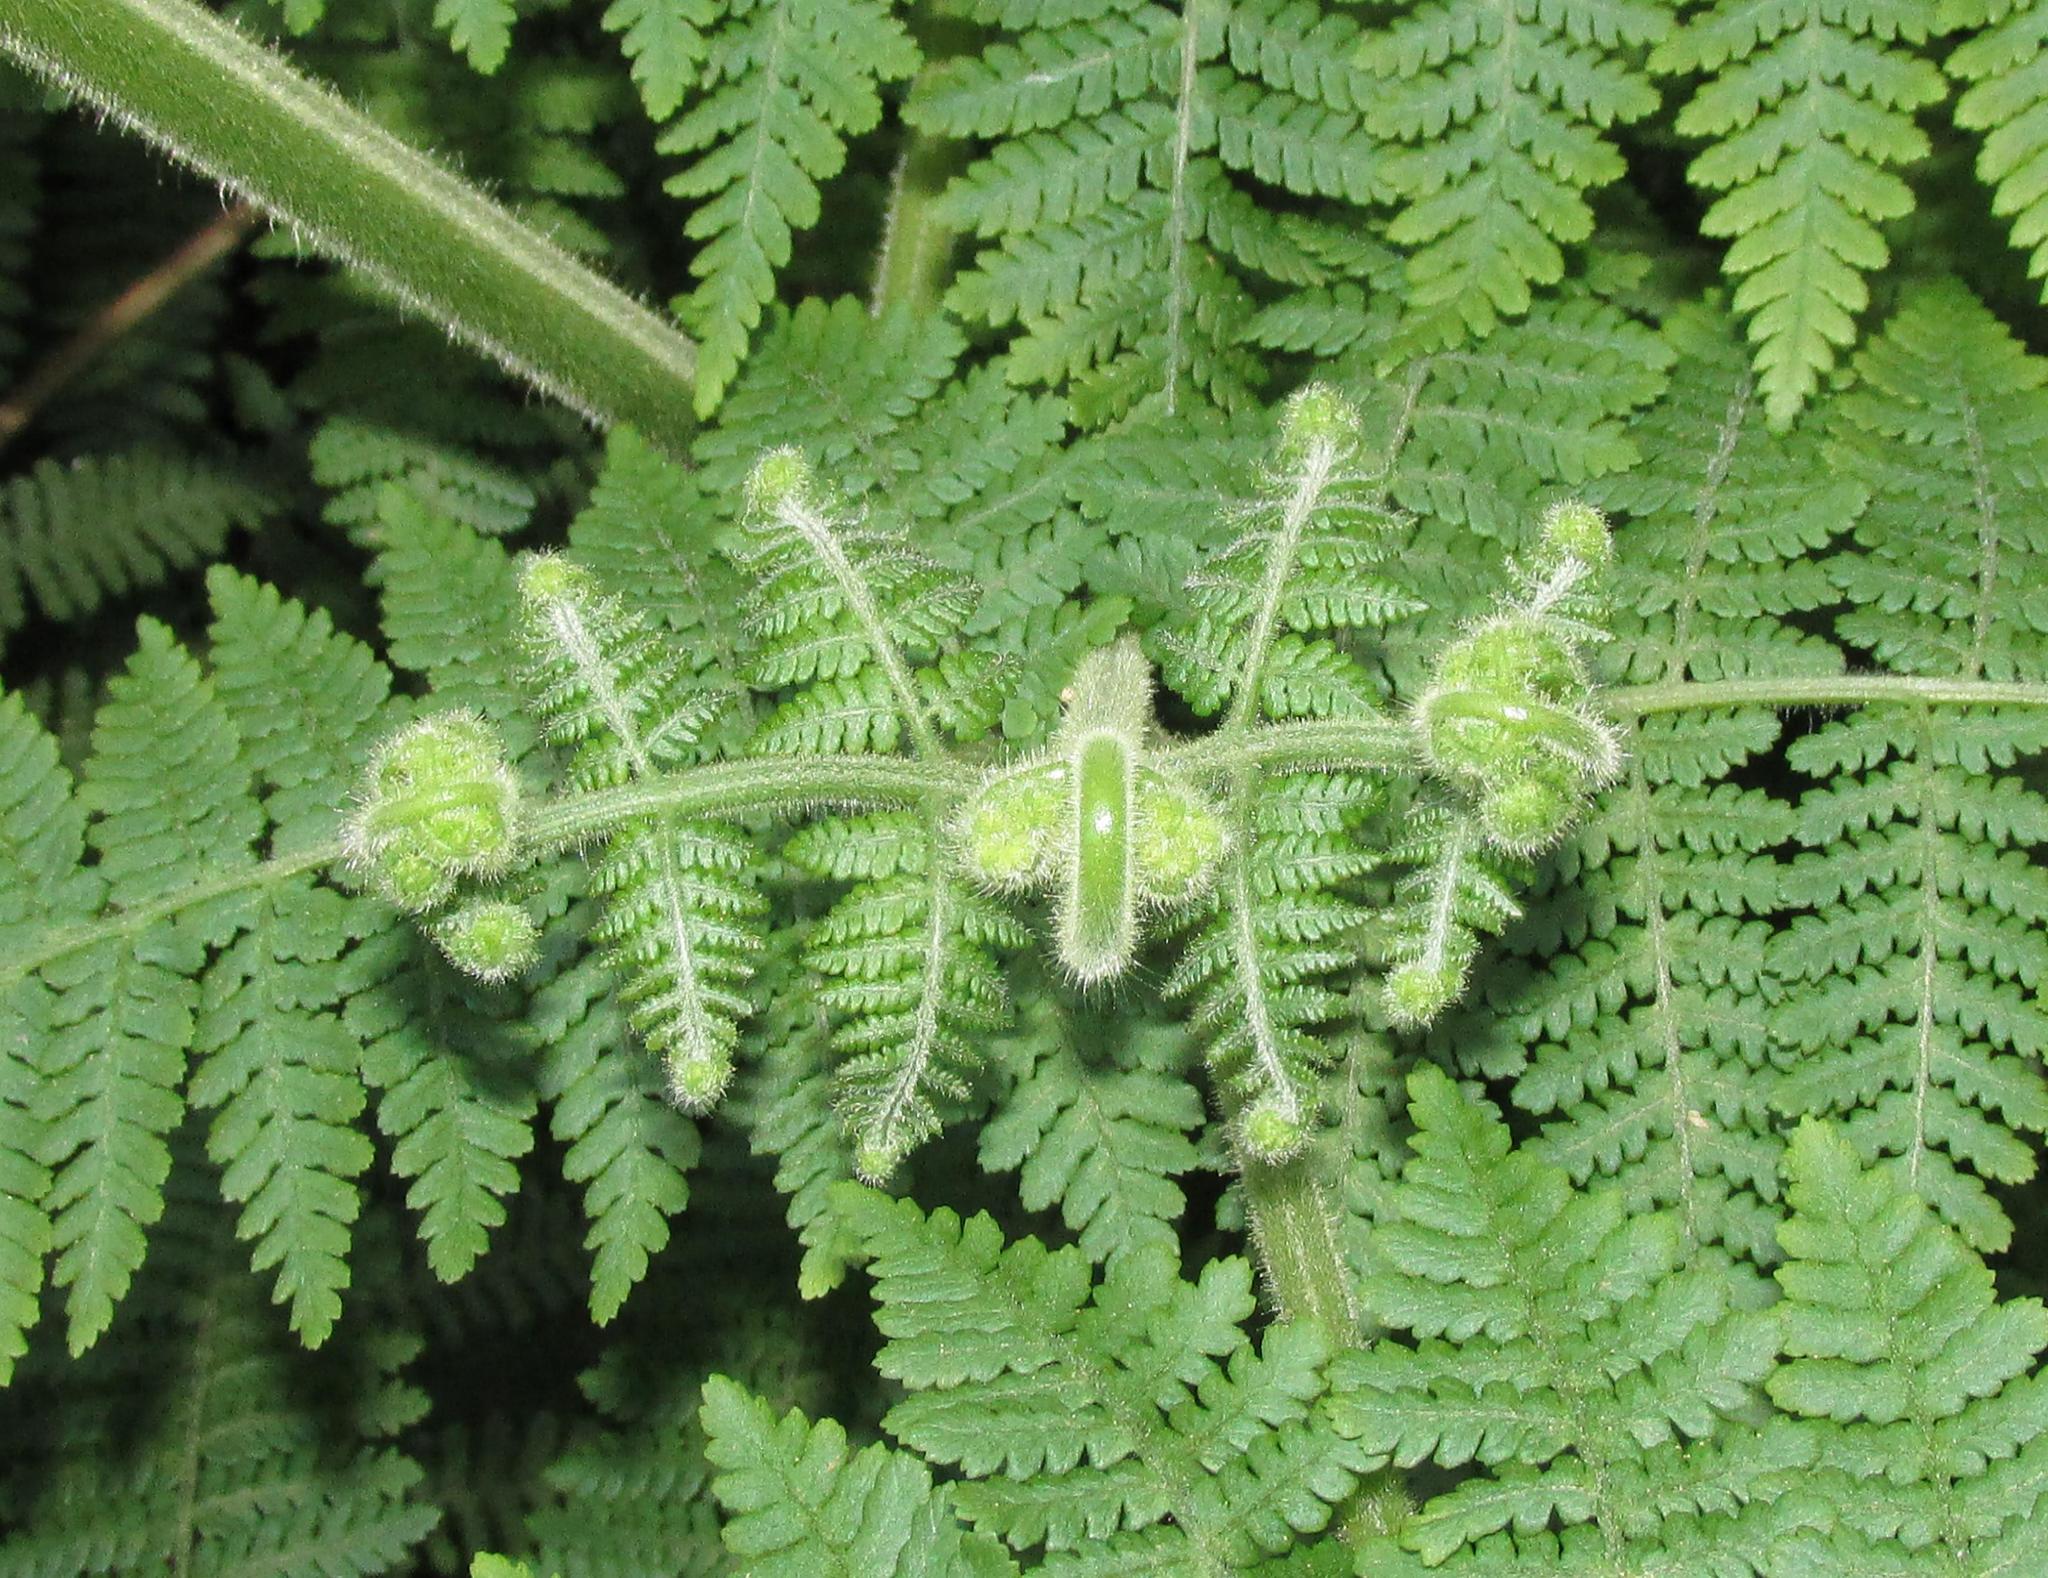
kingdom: Plantae
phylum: Tracheophyta
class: Polypodiopsida
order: Polypodiales
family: Dennstaedtiaceae
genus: Hypolepis
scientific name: Hypolepis rugosula
